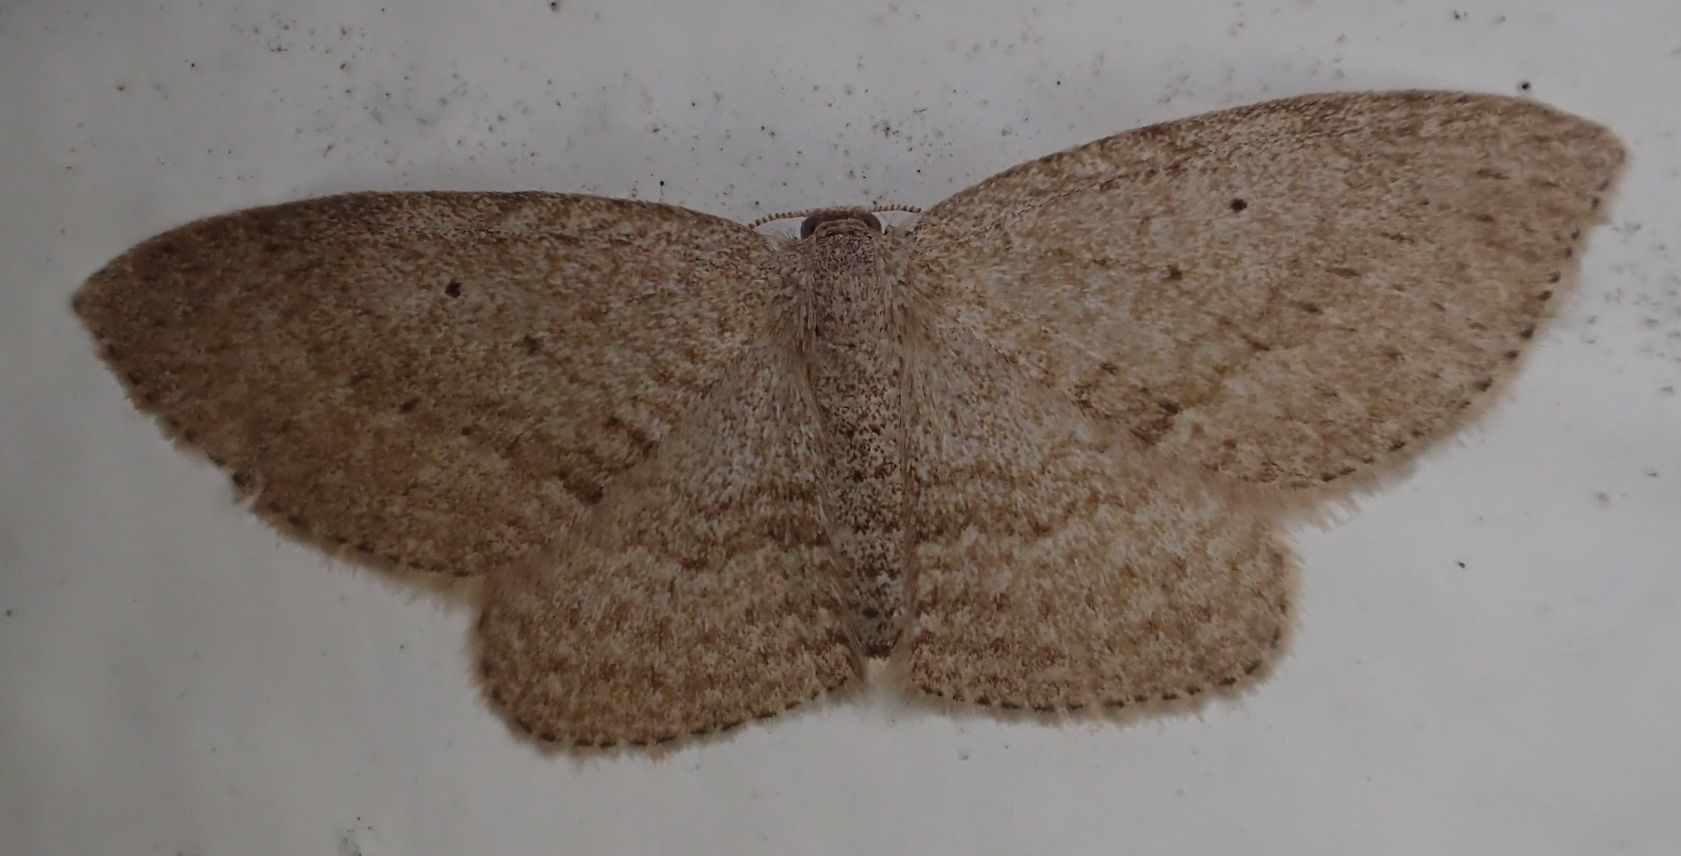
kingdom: Animalia
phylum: Arthropoda
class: Insecta
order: Lepidoptera
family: Geometridae
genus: Poecilasthena
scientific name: Poecilasthena schistaria
